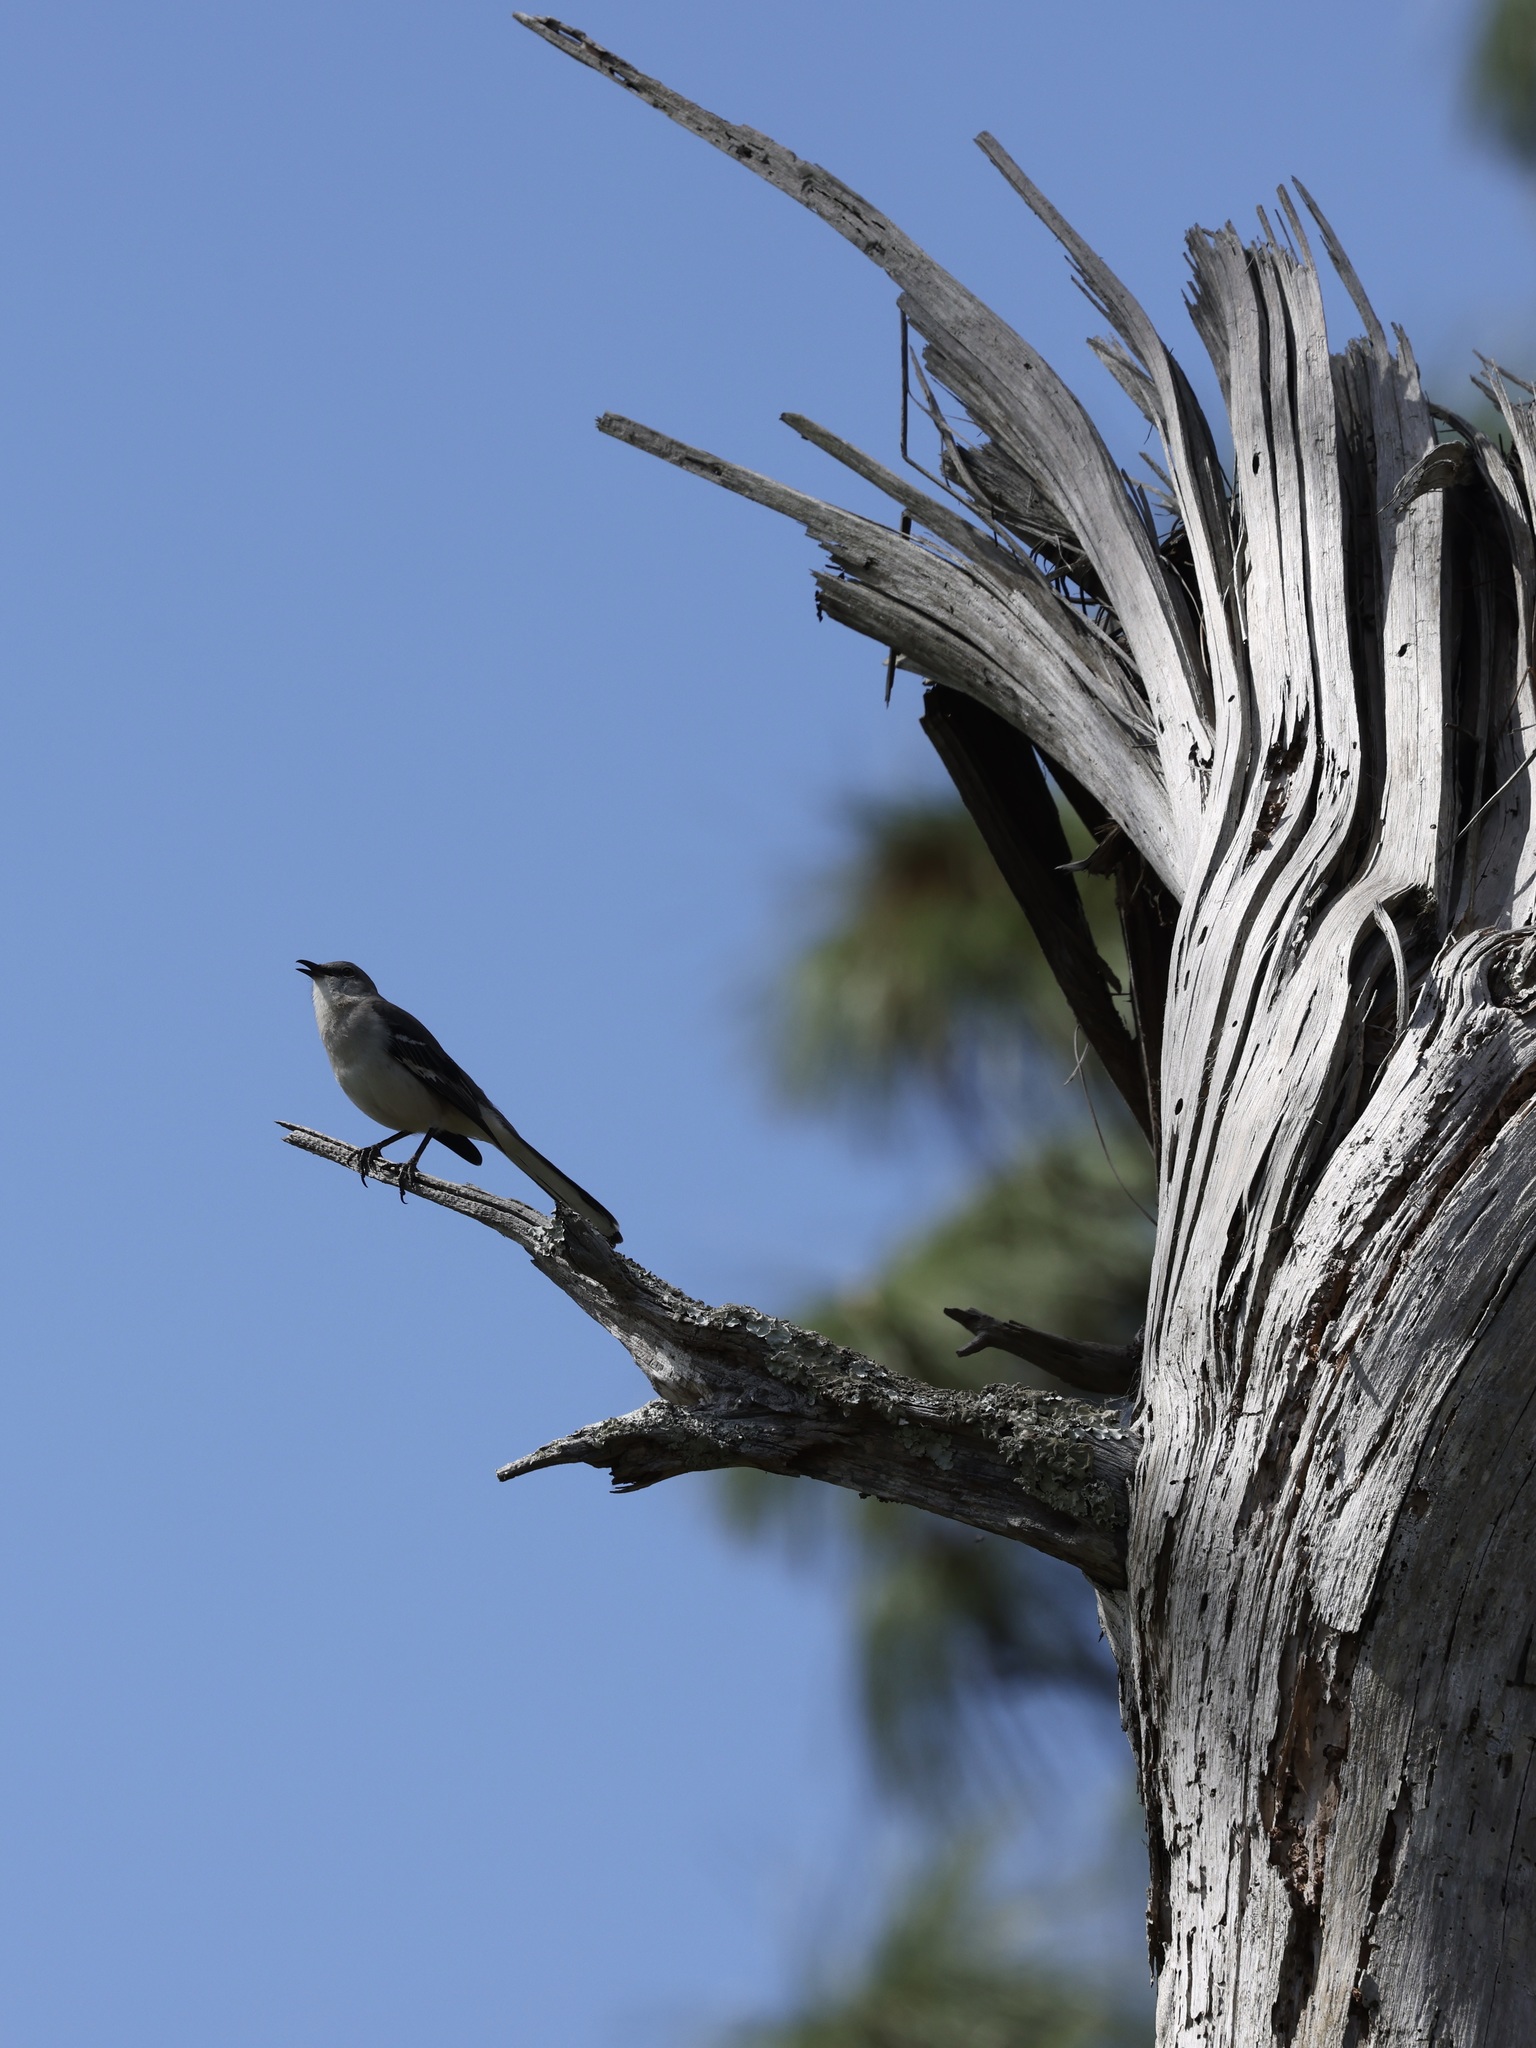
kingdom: Animalia
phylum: Chordata
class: Aves
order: Passeriformes
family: Mimidae
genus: Mimus
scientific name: Mimus polyglottos
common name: Northern mockingbird
